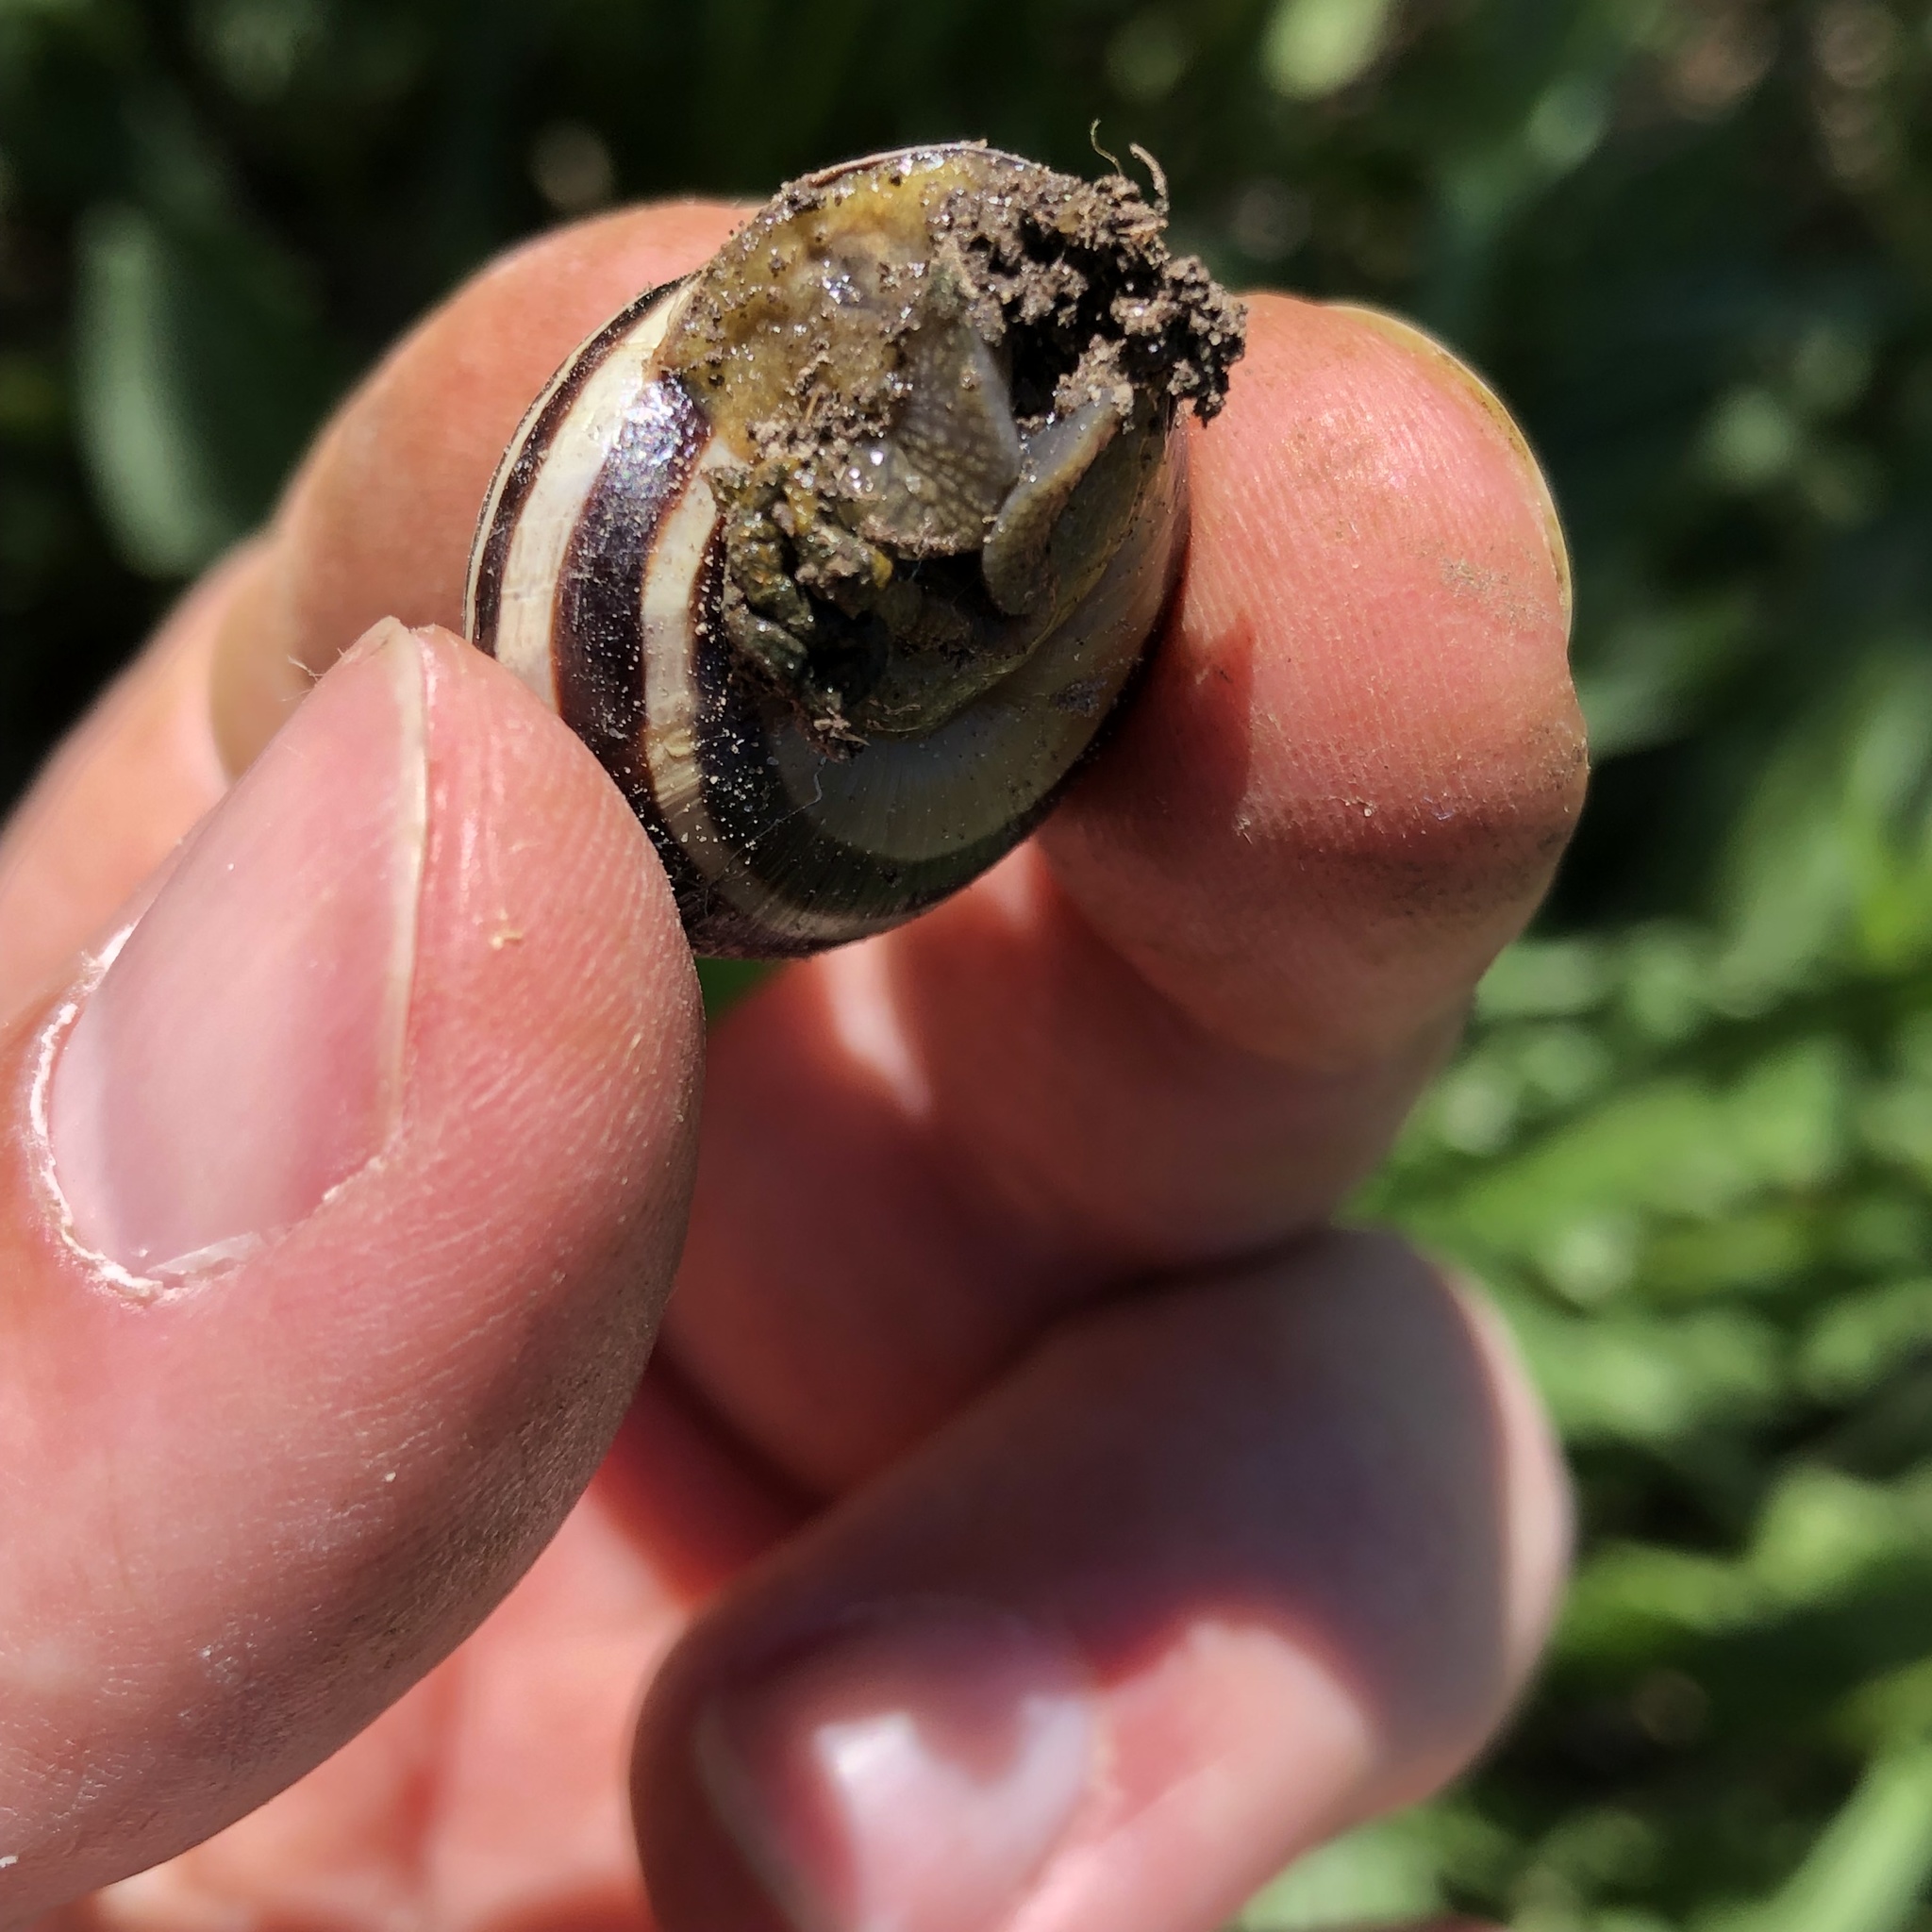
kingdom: Animalia
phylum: Mollusca
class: Gastropoda
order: Stylommatophora
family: Helicidae
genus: Cepaea
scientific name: Cepaea nemoralis
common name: Grovesnail
